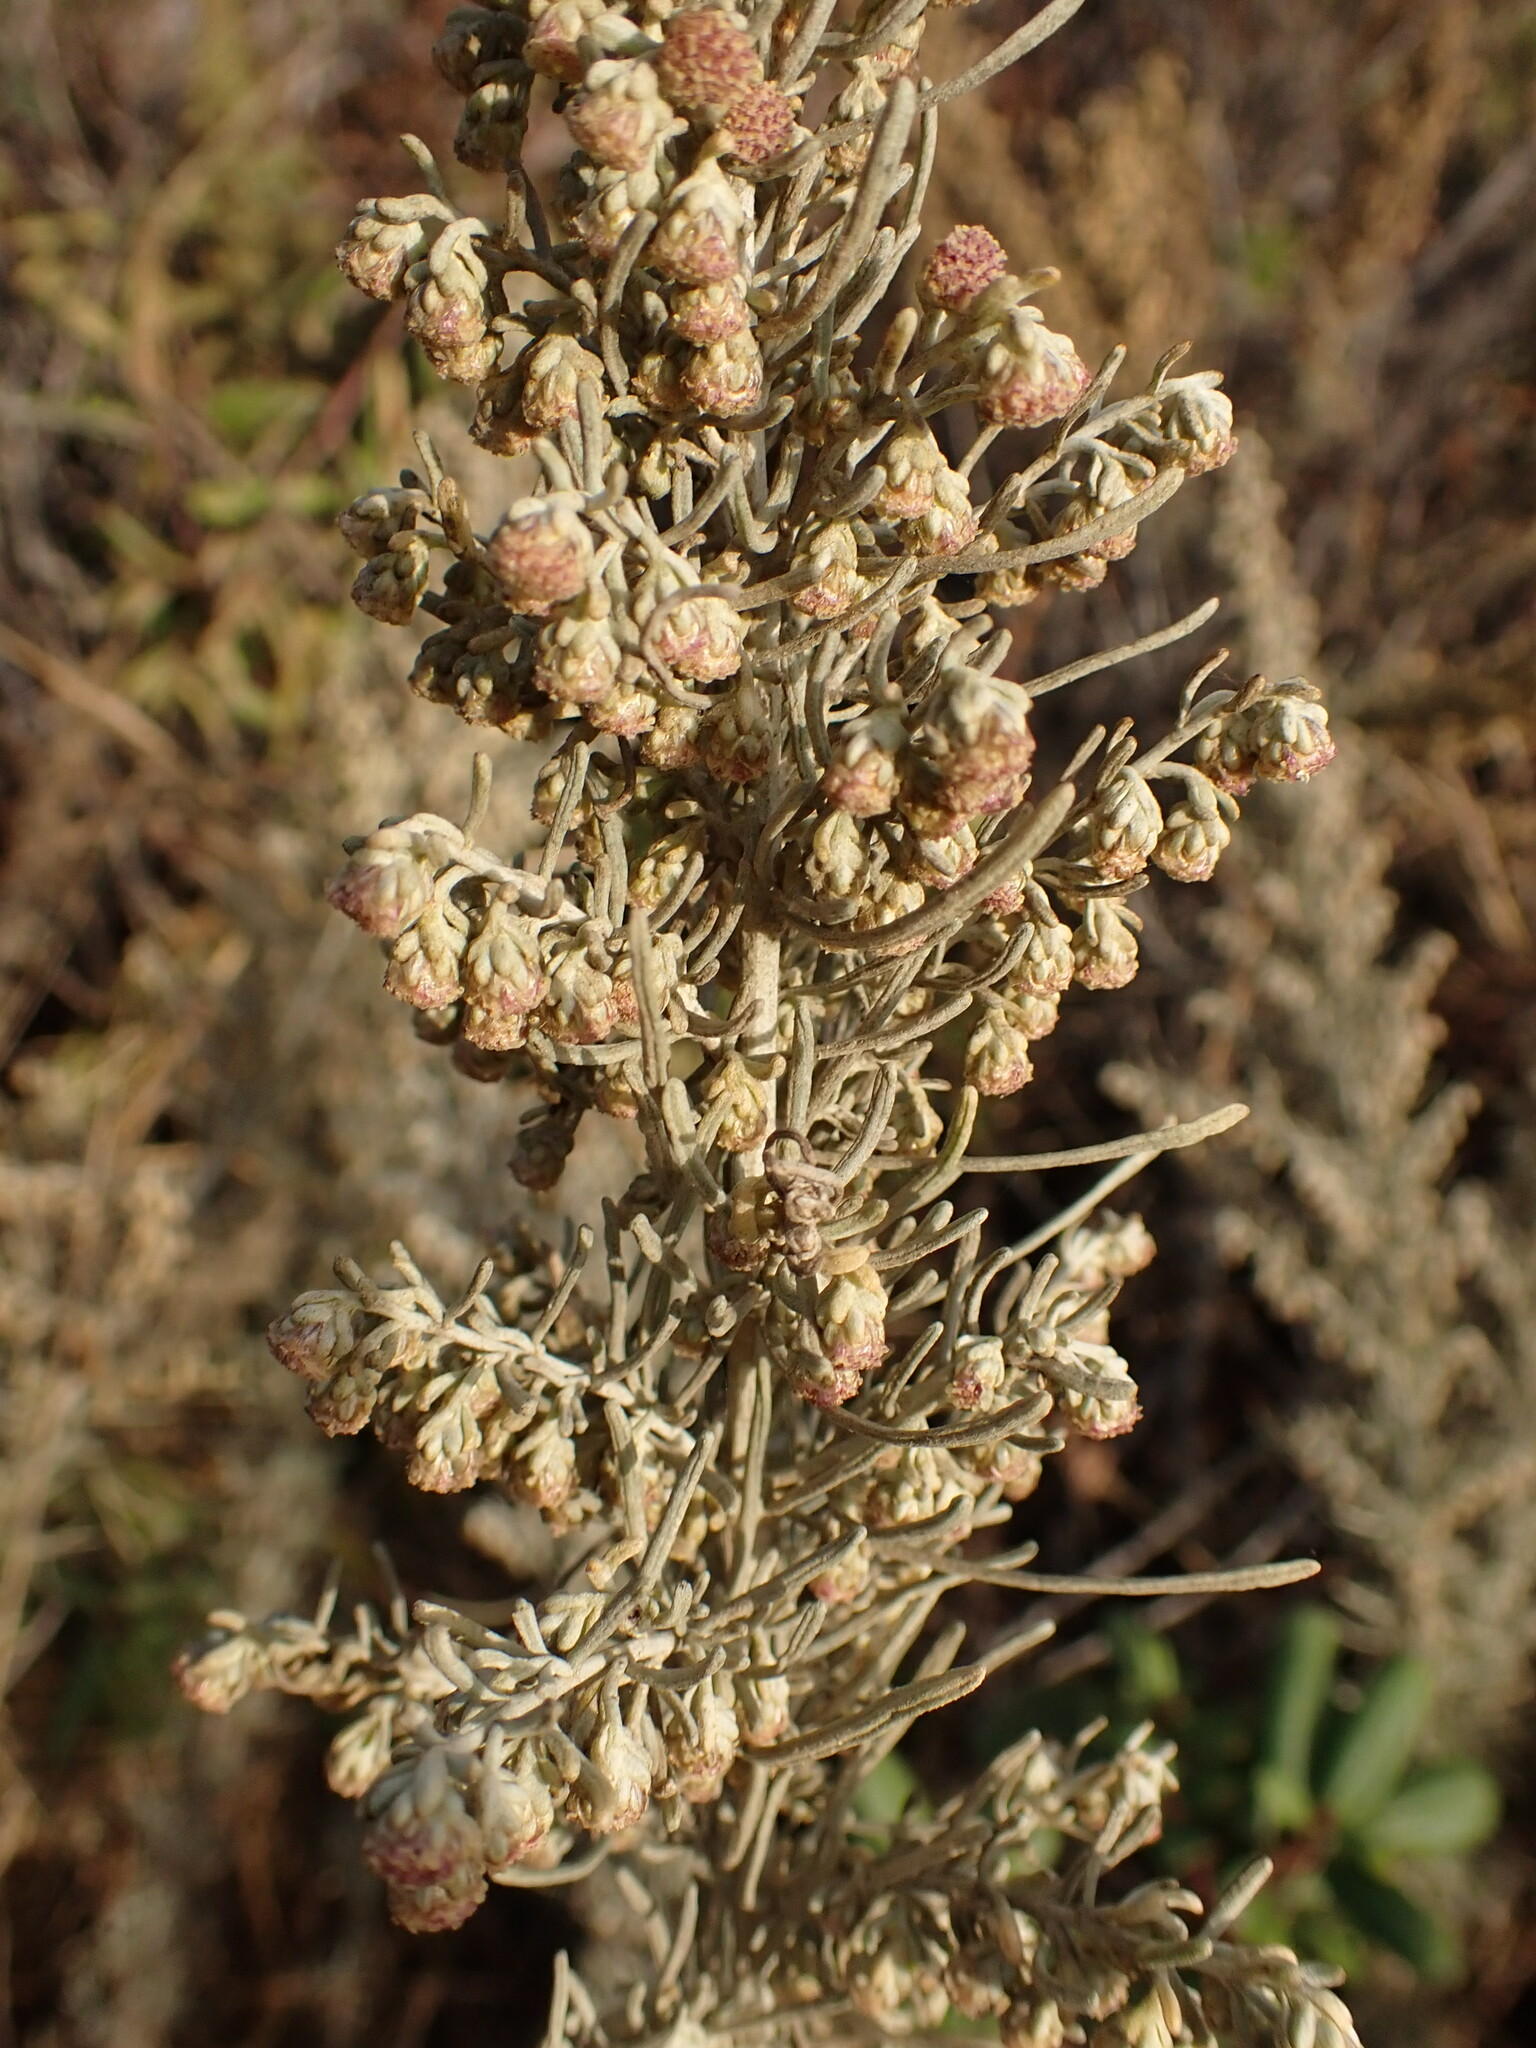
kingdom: Plantae
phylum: Tracheophyta
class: Magnoliopsida
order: Asterales
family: Asteraceae
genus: Artemisia
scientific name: Artemisia californica
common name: California sagebrush
